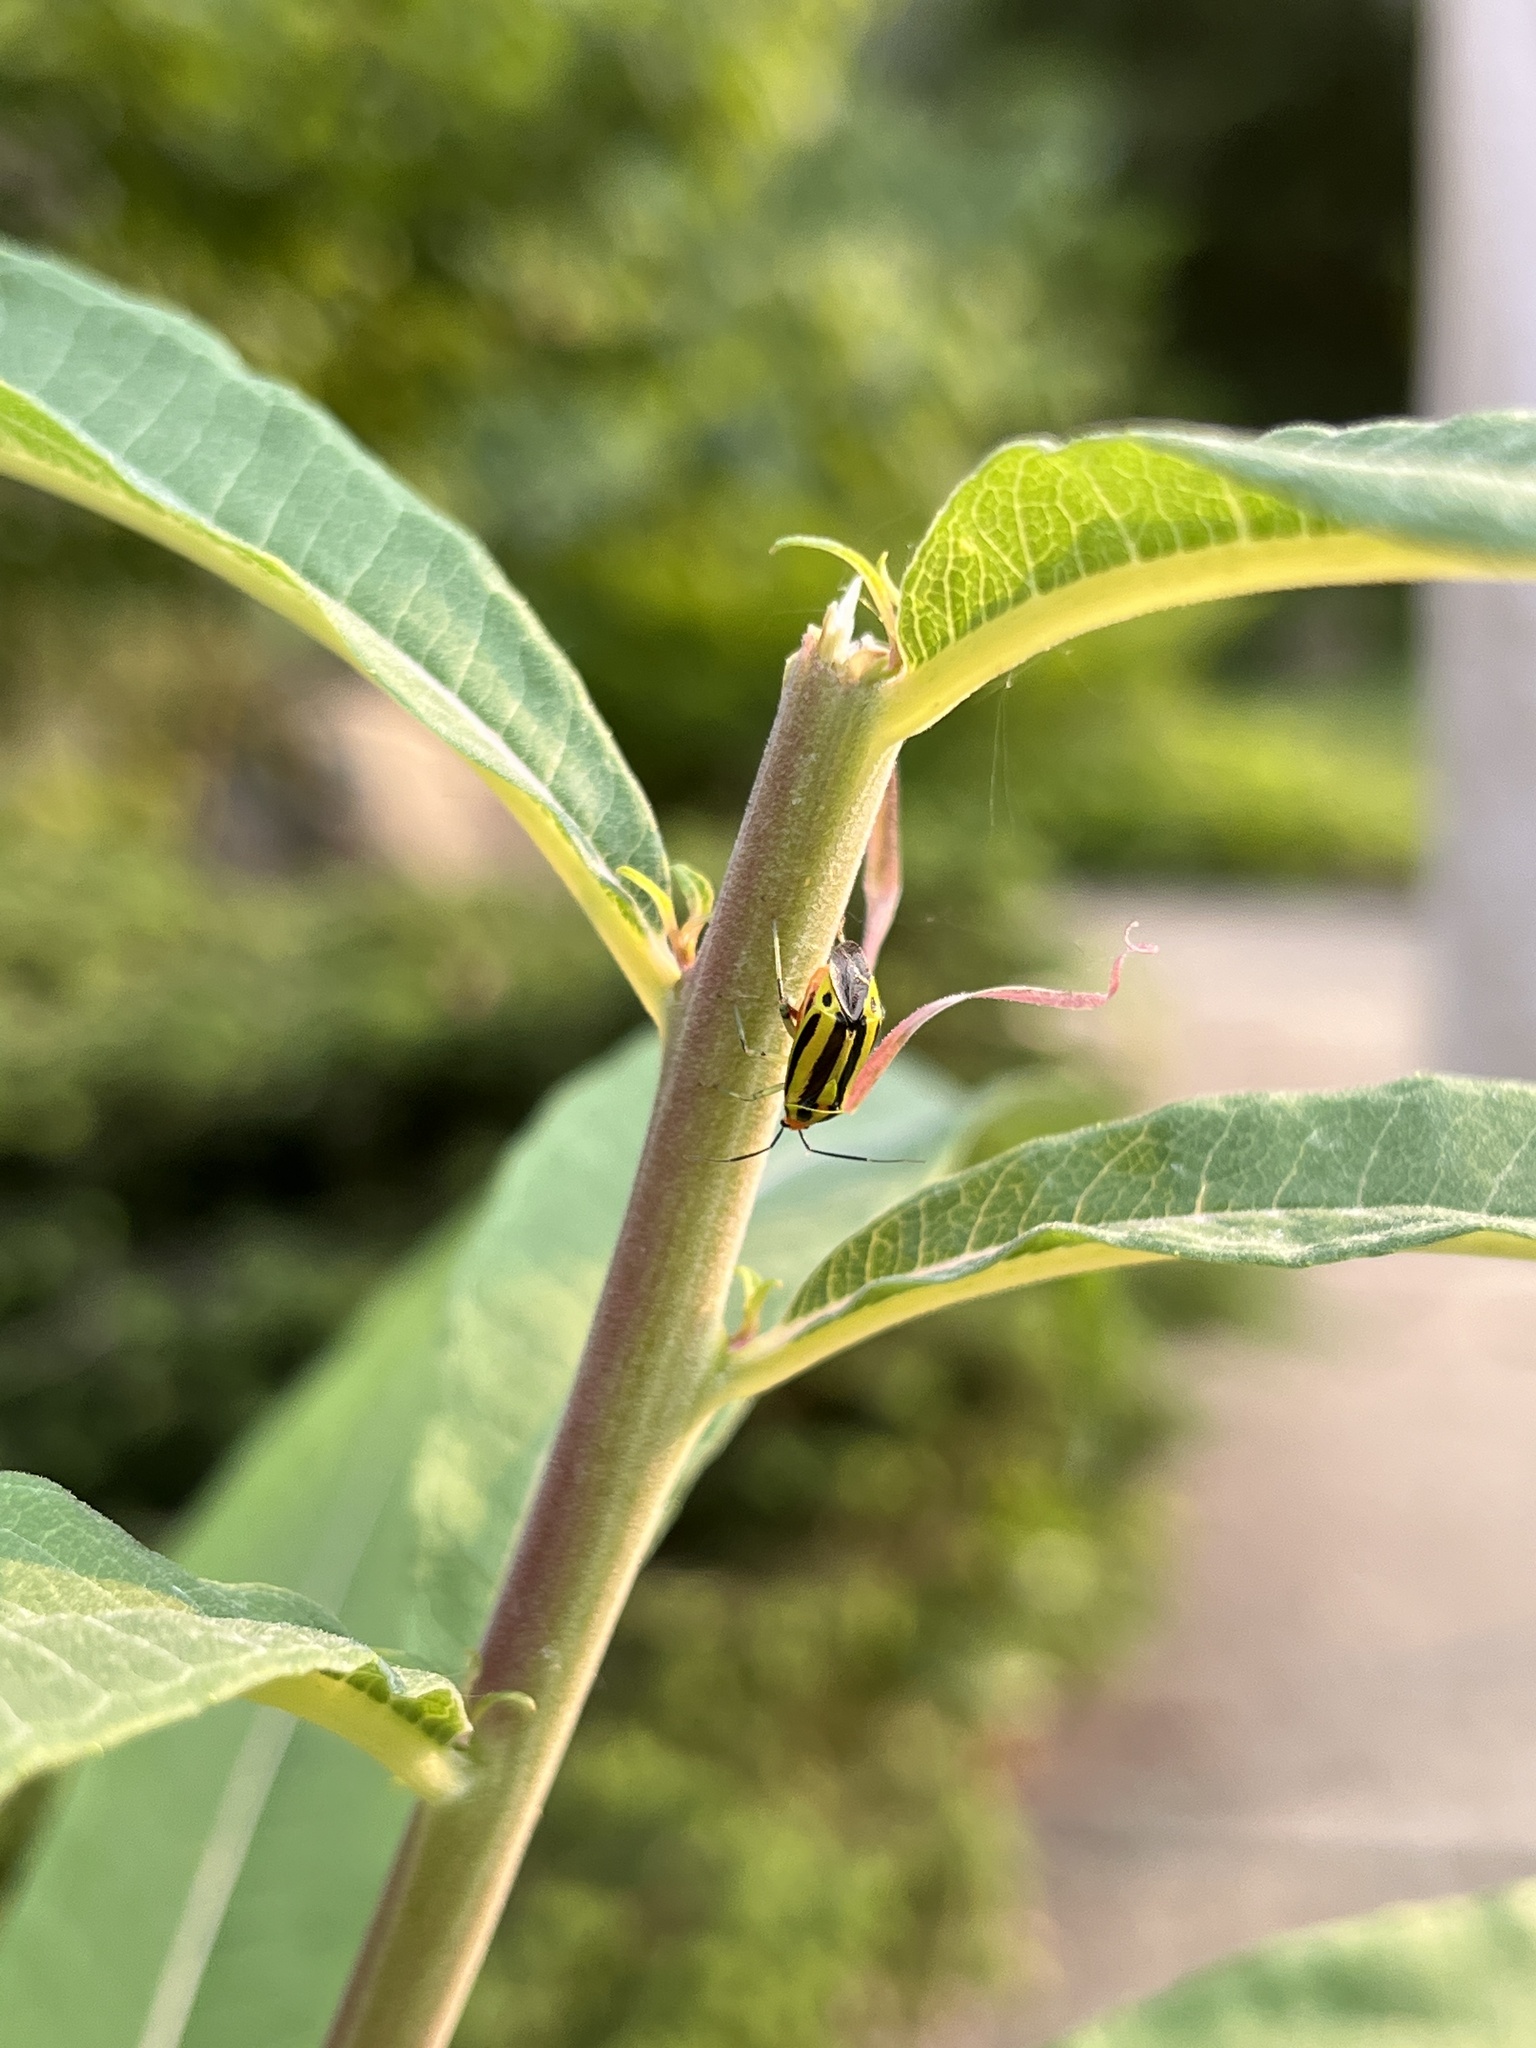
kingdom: Animalia
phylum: Arthropoda
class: Insecta
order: Hemiptera
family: Miridae
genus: Poecilocapsus
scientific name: Poecilocapsus lineatus
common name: Four-lined plant bug
